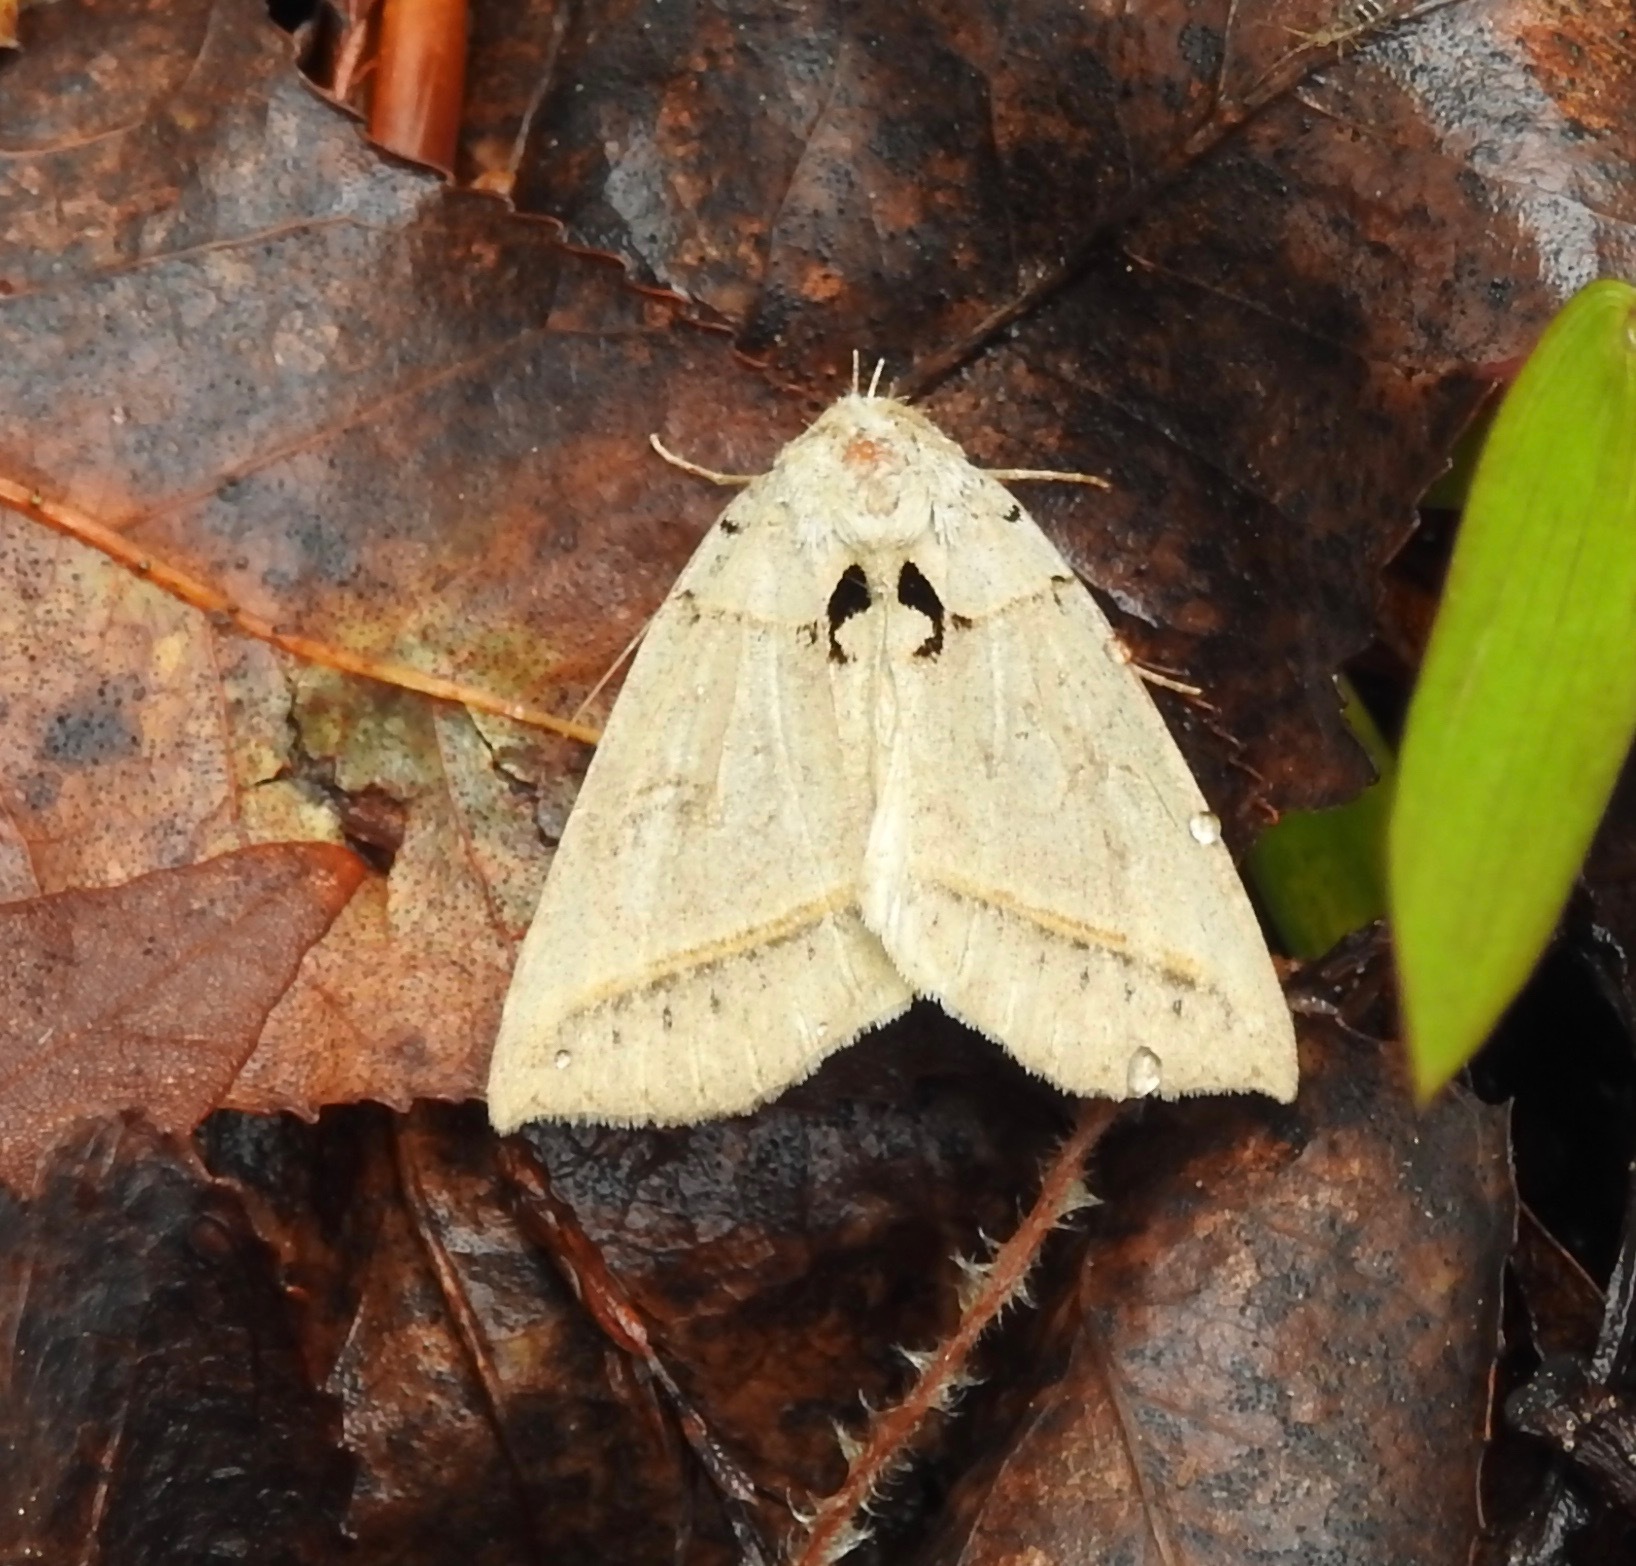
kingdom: Animalia
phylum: Arthropoda
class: Insecta
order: Lepidoptera
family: Erebidae
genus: Celiptera
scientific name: Celiptera frustulum
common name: Black bit moth
